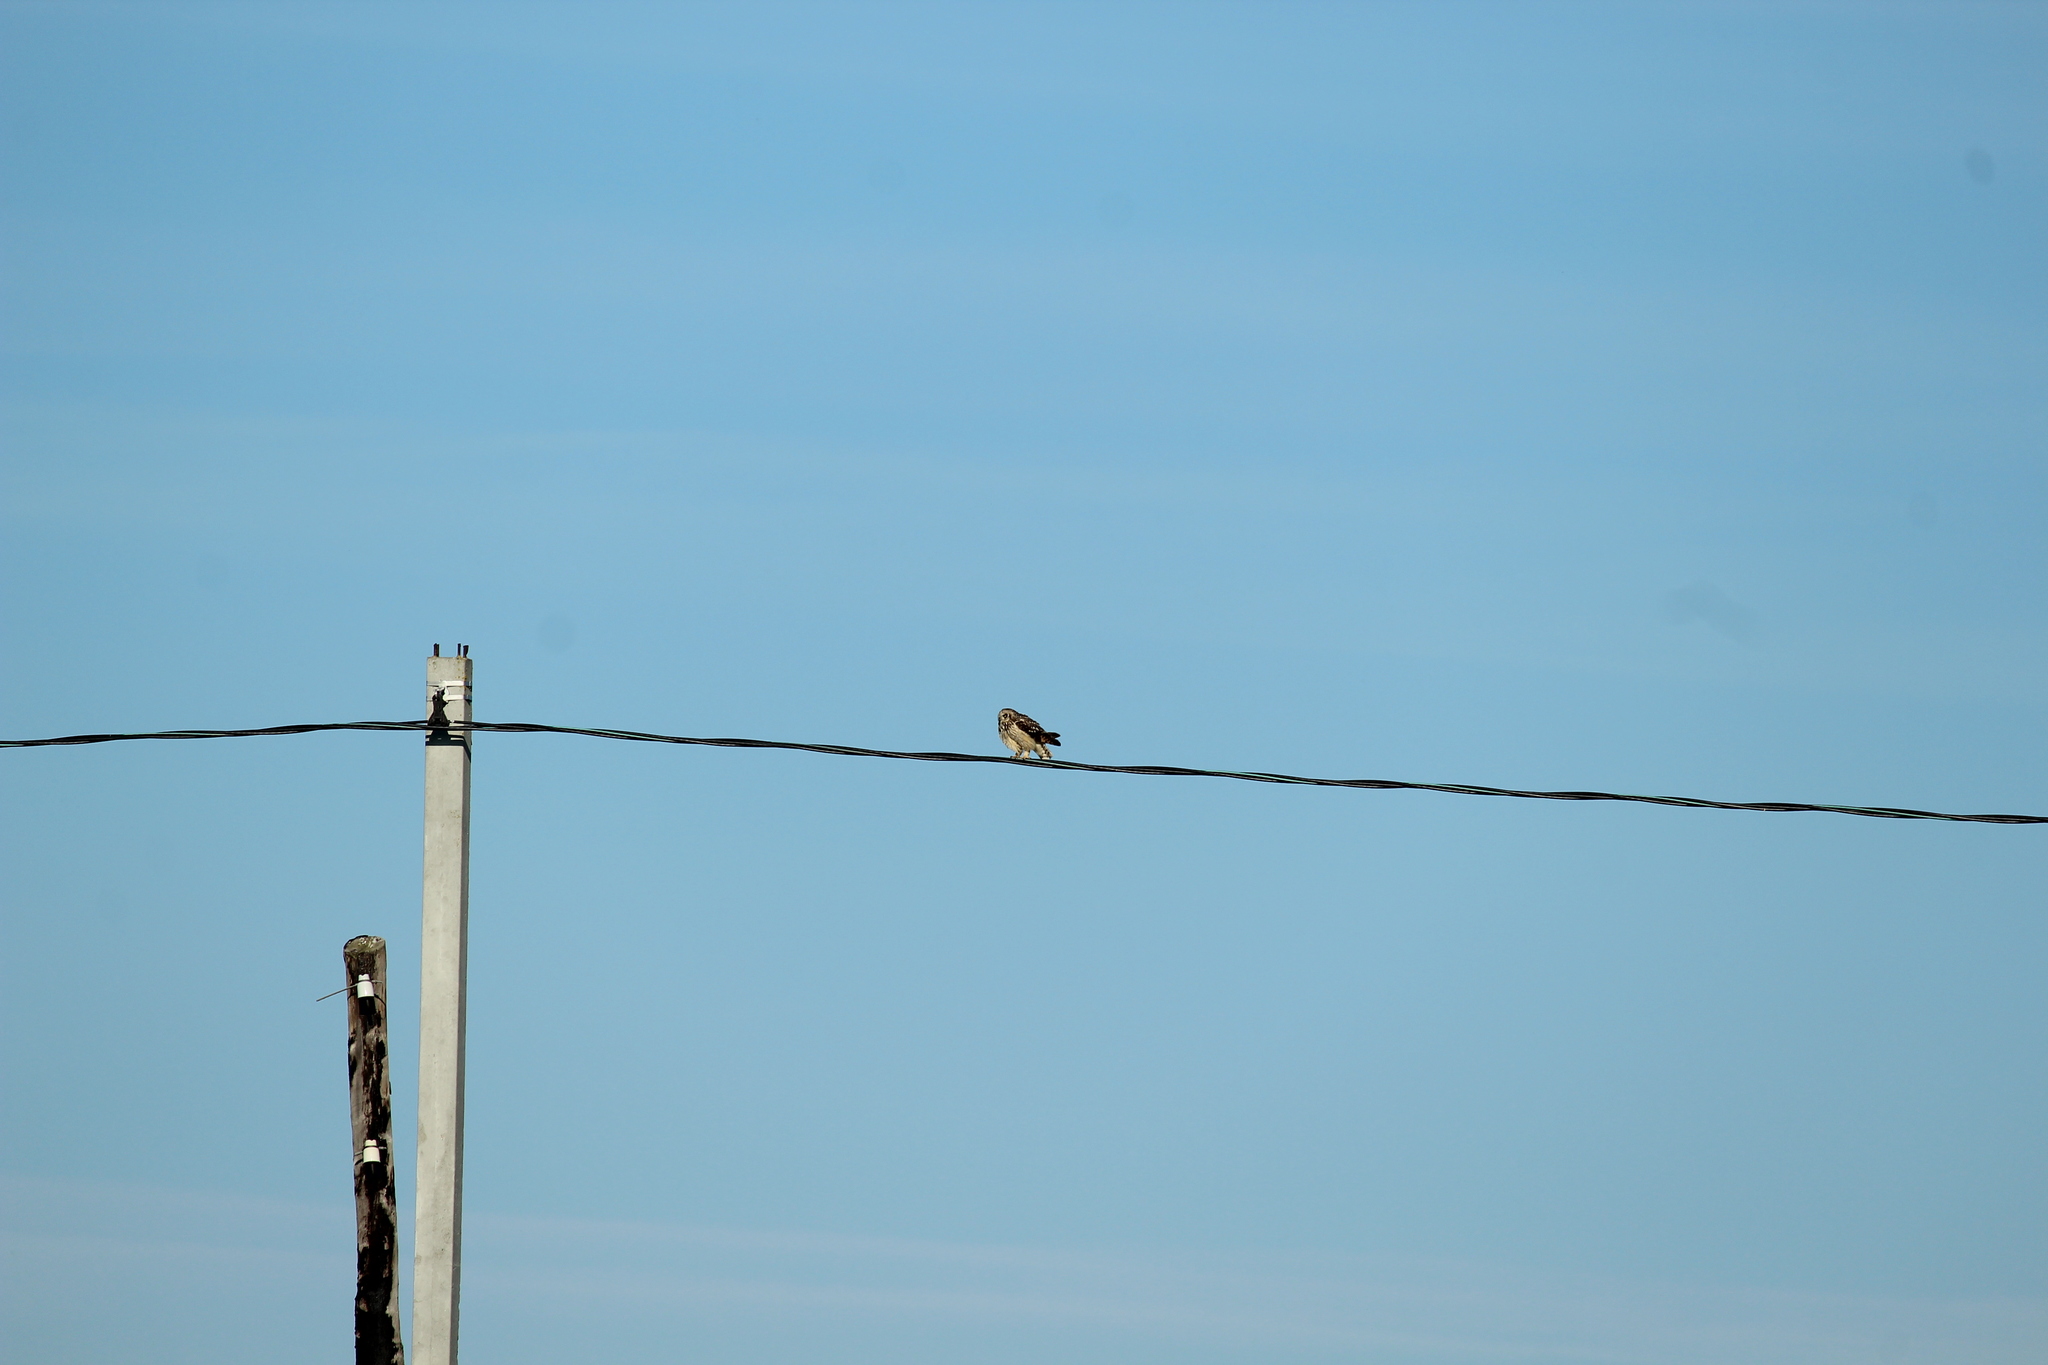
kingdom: Animalia
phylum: Chordata
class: Aves
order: Strigiformes
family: Strigidae
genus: Asio
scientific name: Asio flammeus
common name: Short-eared owl
